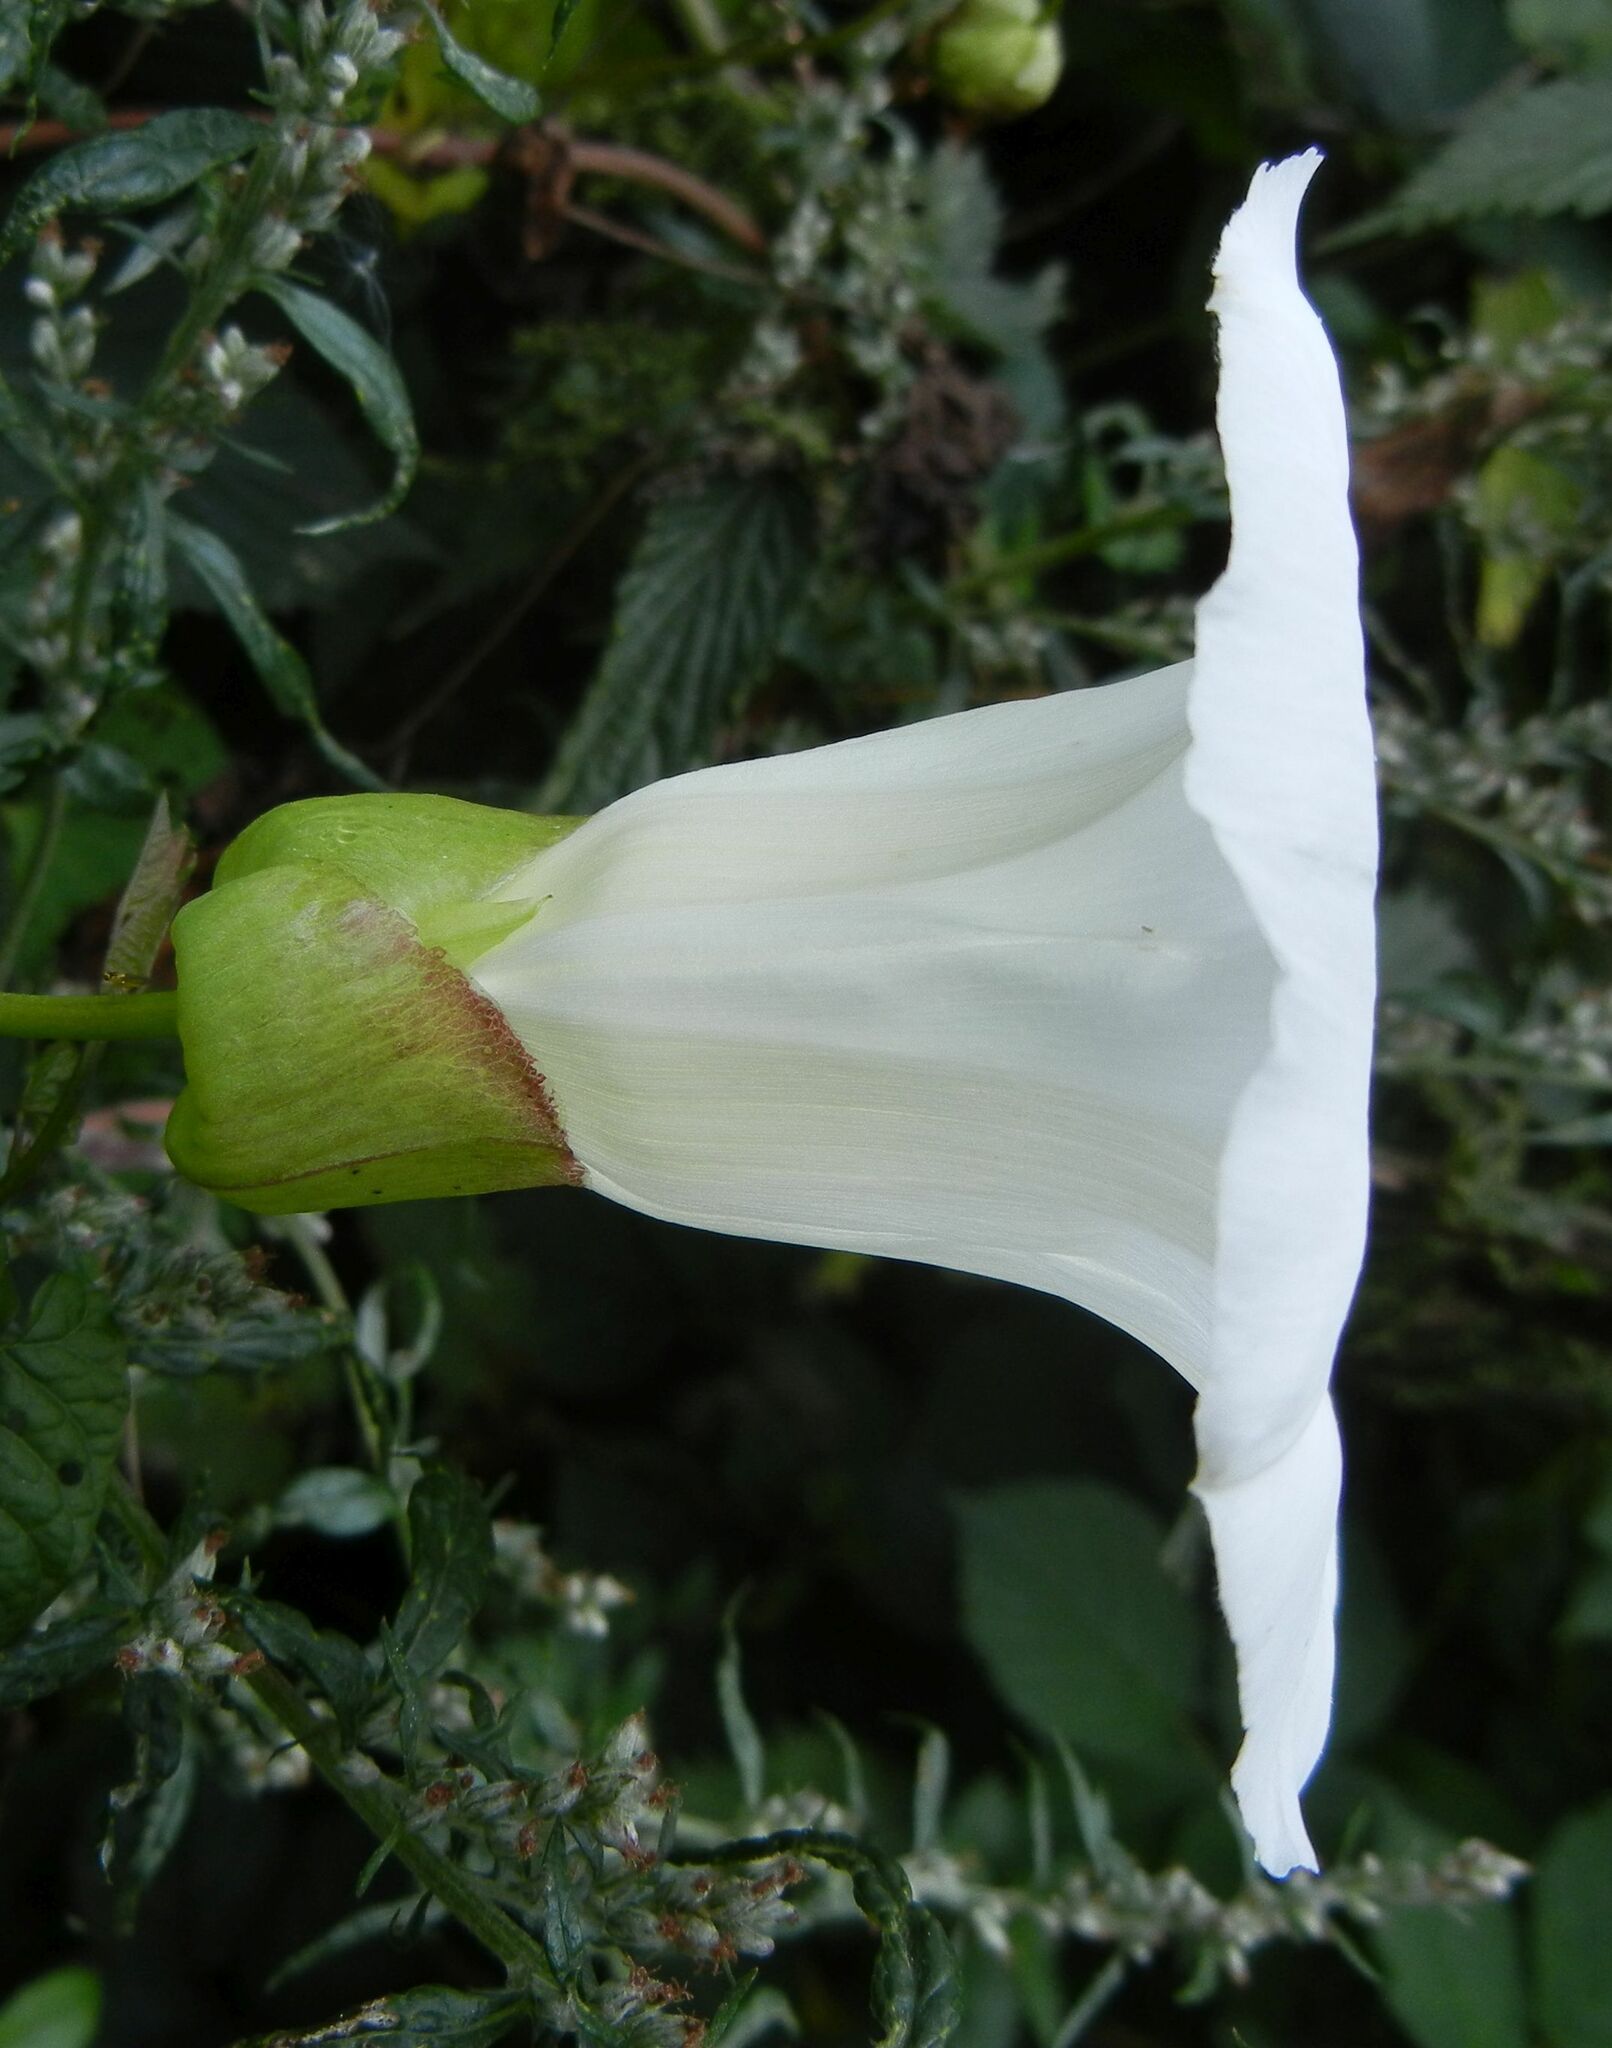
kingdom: Plantae
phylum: Tracheophyta
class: Magnoliopsida
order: Solanales
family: Convolvulaceae
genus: Calystegia
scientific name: Calystegia silvatica
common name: Large bindweed
